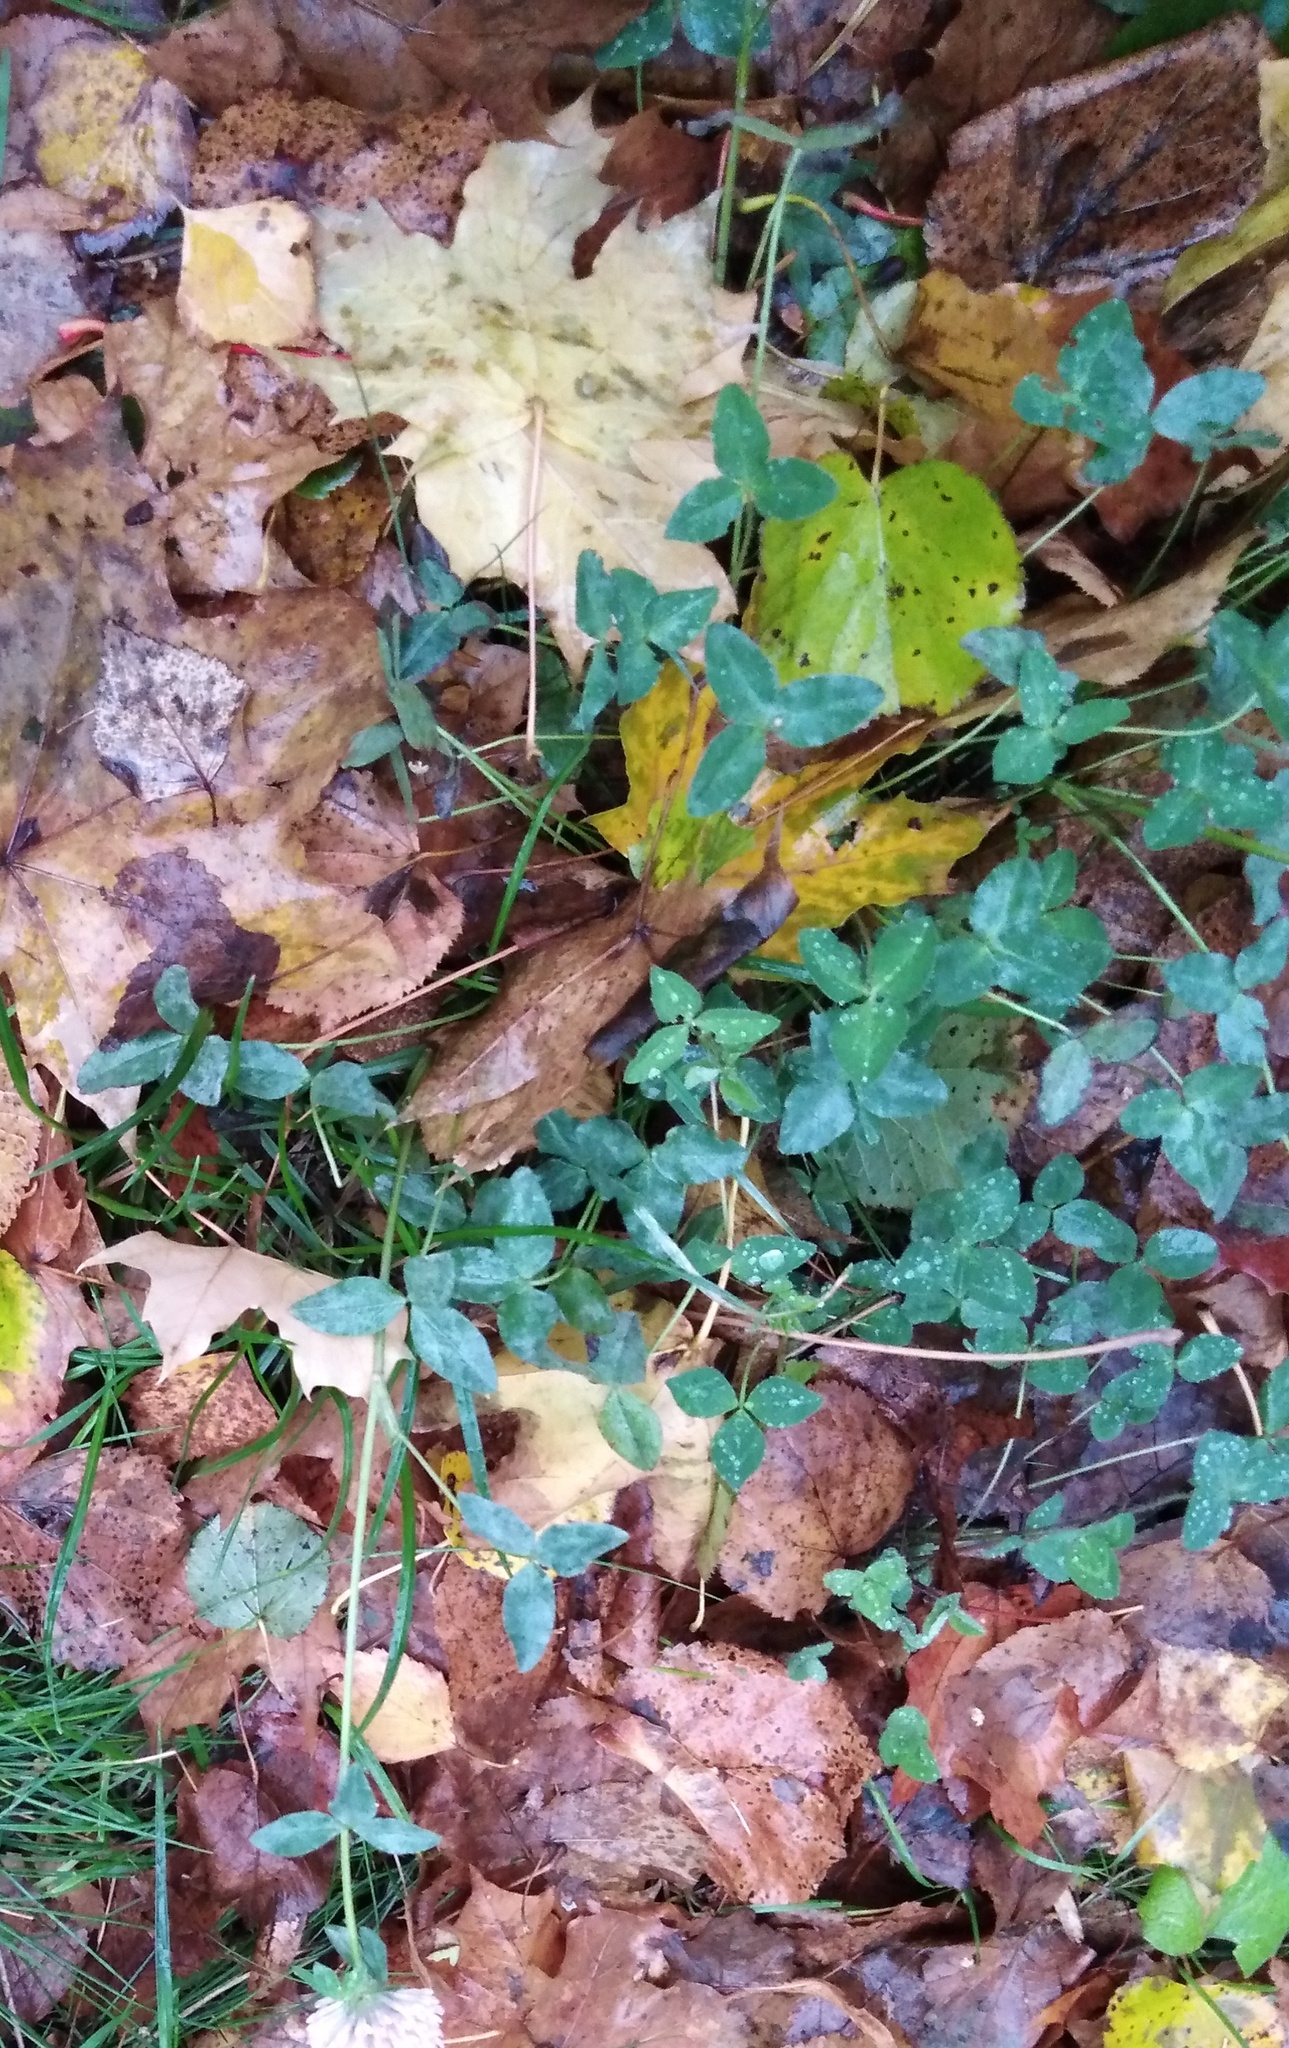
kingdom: Plantae
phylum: Tracheophyta
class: Magnoliopsida
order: Fabales
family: Fabaceae
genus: Trifolium
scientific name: Trifolium pratense
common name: Red clover
